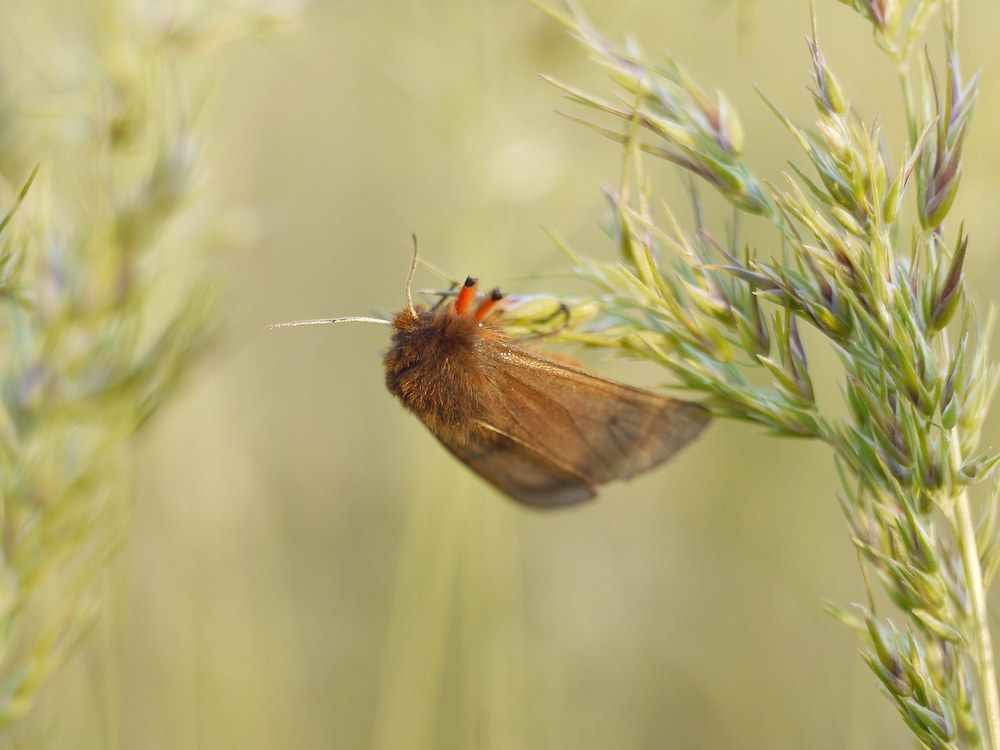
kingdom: Animalia
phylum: Arthropoda
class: Insecta
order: Lepidoptera
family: Erebidae
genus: Phragmatobia
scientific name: Phragmatobia fuliginosa
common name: Ruby tiger
